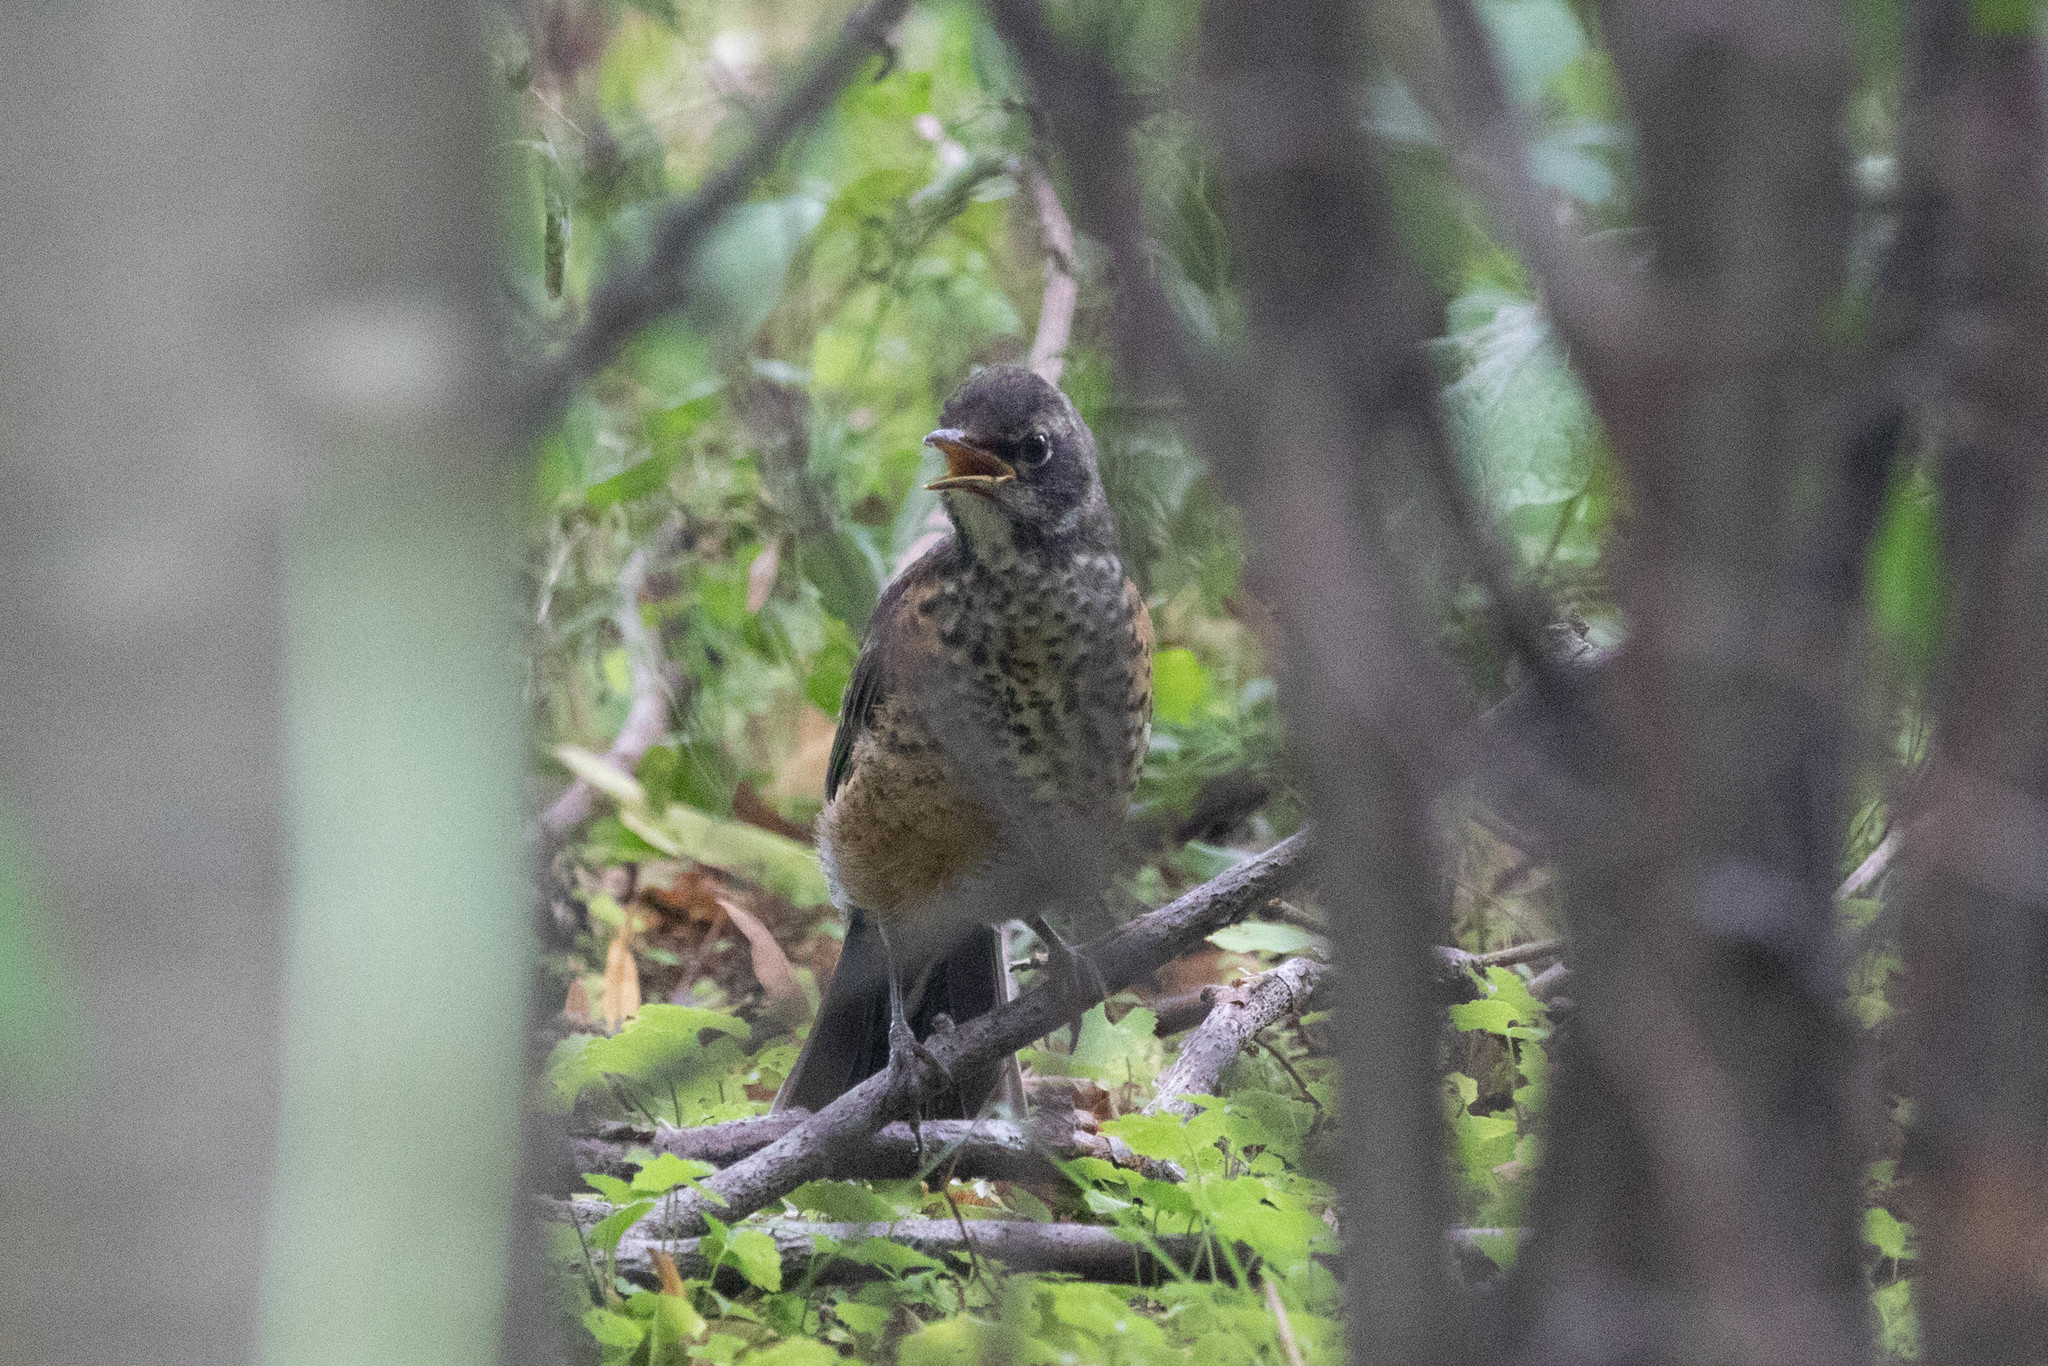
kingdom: Animalia
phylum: Chordata
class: Aves
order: Passeriformes
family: Turdidae
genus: Turdus
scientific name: Turdus migratorius
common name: American robin
